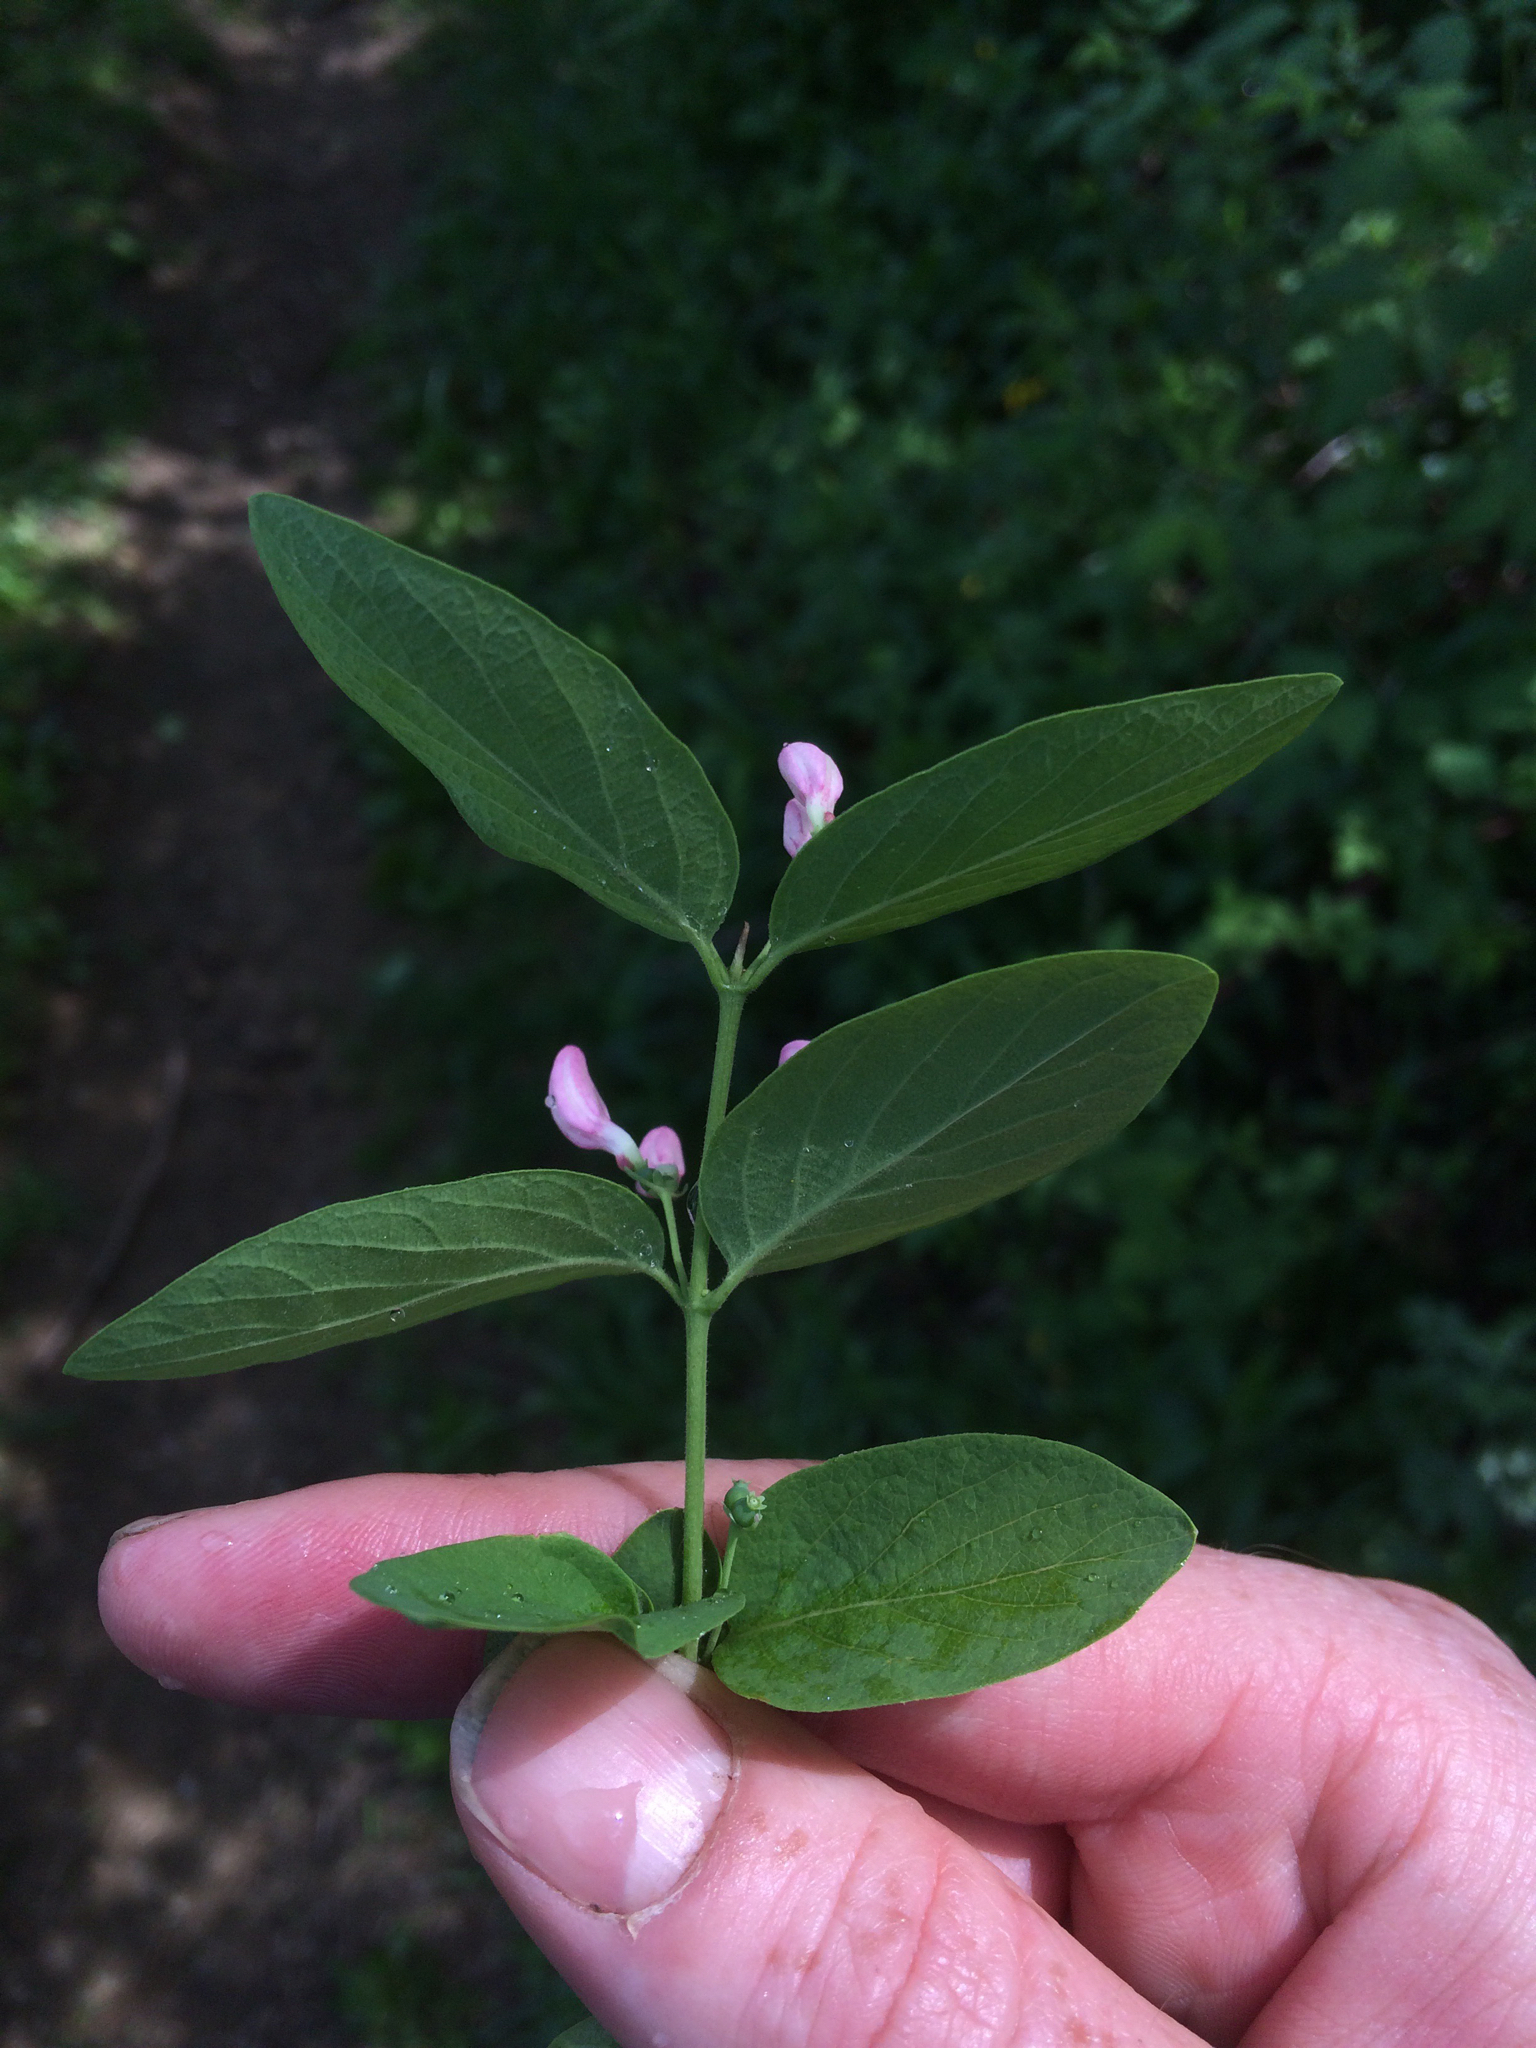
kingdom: Plantae
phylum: Tracheophyta
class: Magnoliopsida
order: Dipsacales
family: Caprifoliaceae
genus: Lonicera
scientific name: Lonicera tatarica
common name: Tatarian honeysuckle
